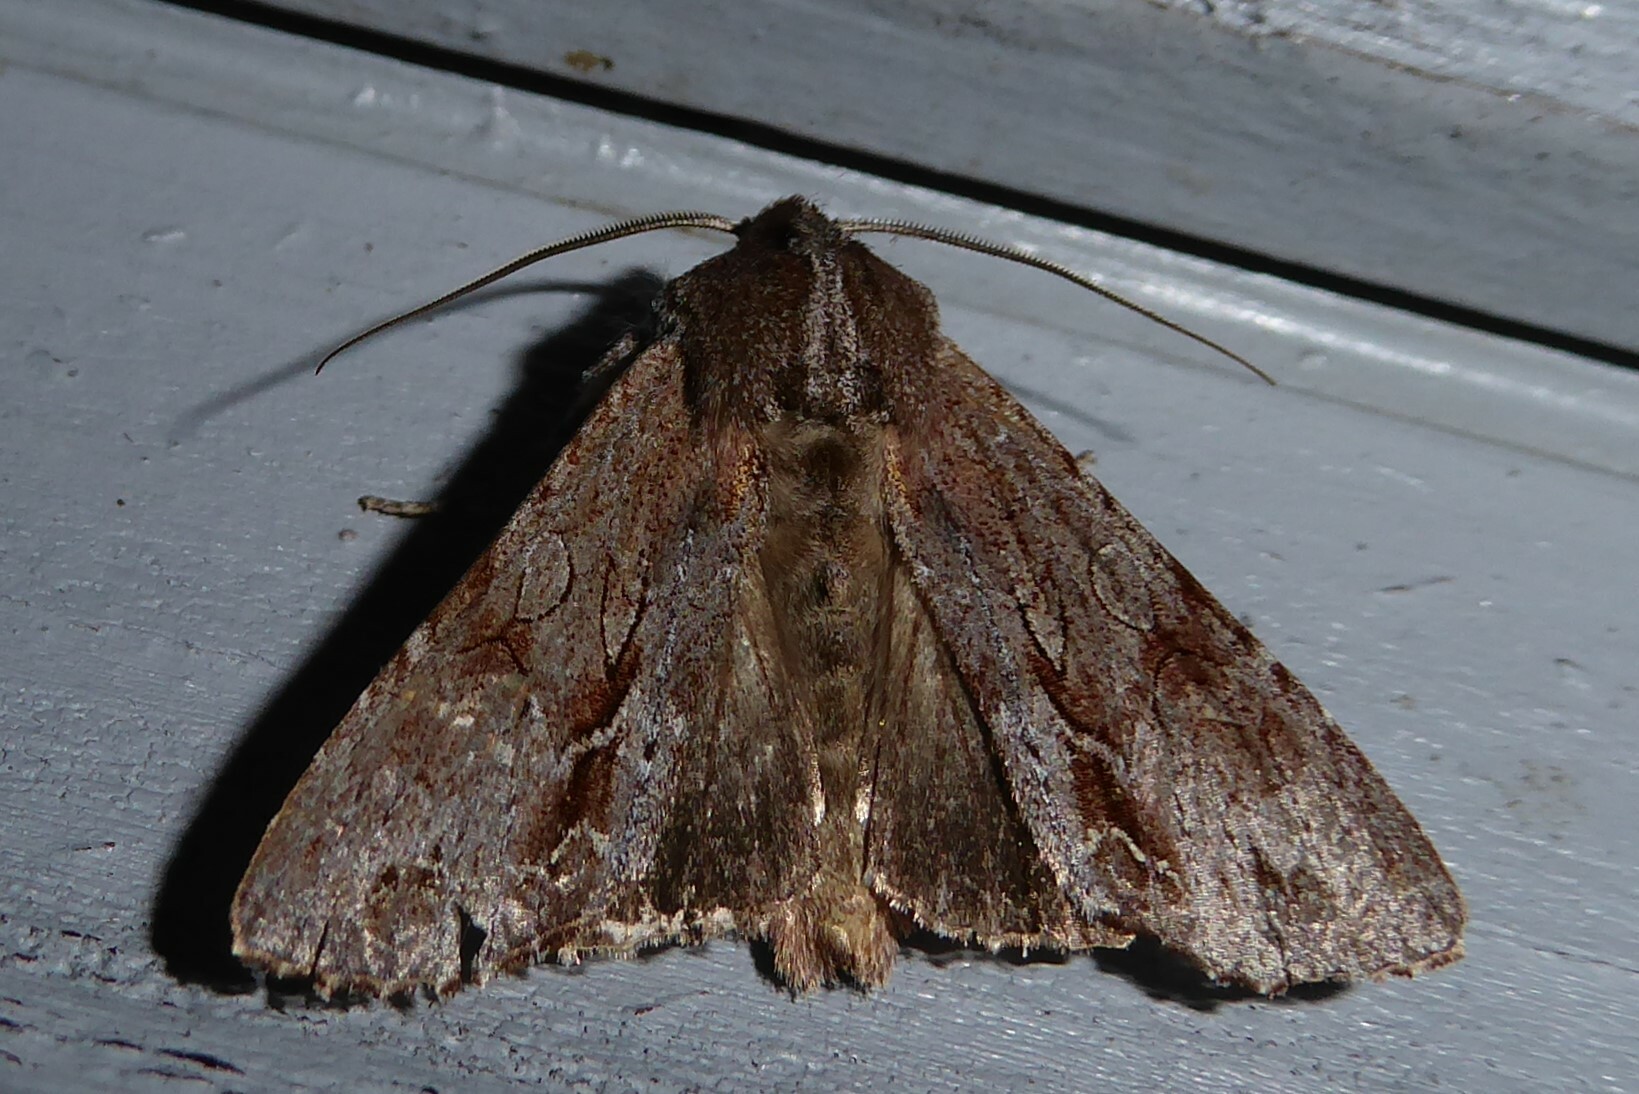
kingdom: Animalia
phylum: Arthropoda
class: Insecta
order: Lepidoptera
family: Noctuidae
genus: Ichneutica
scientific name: Ichneutica
